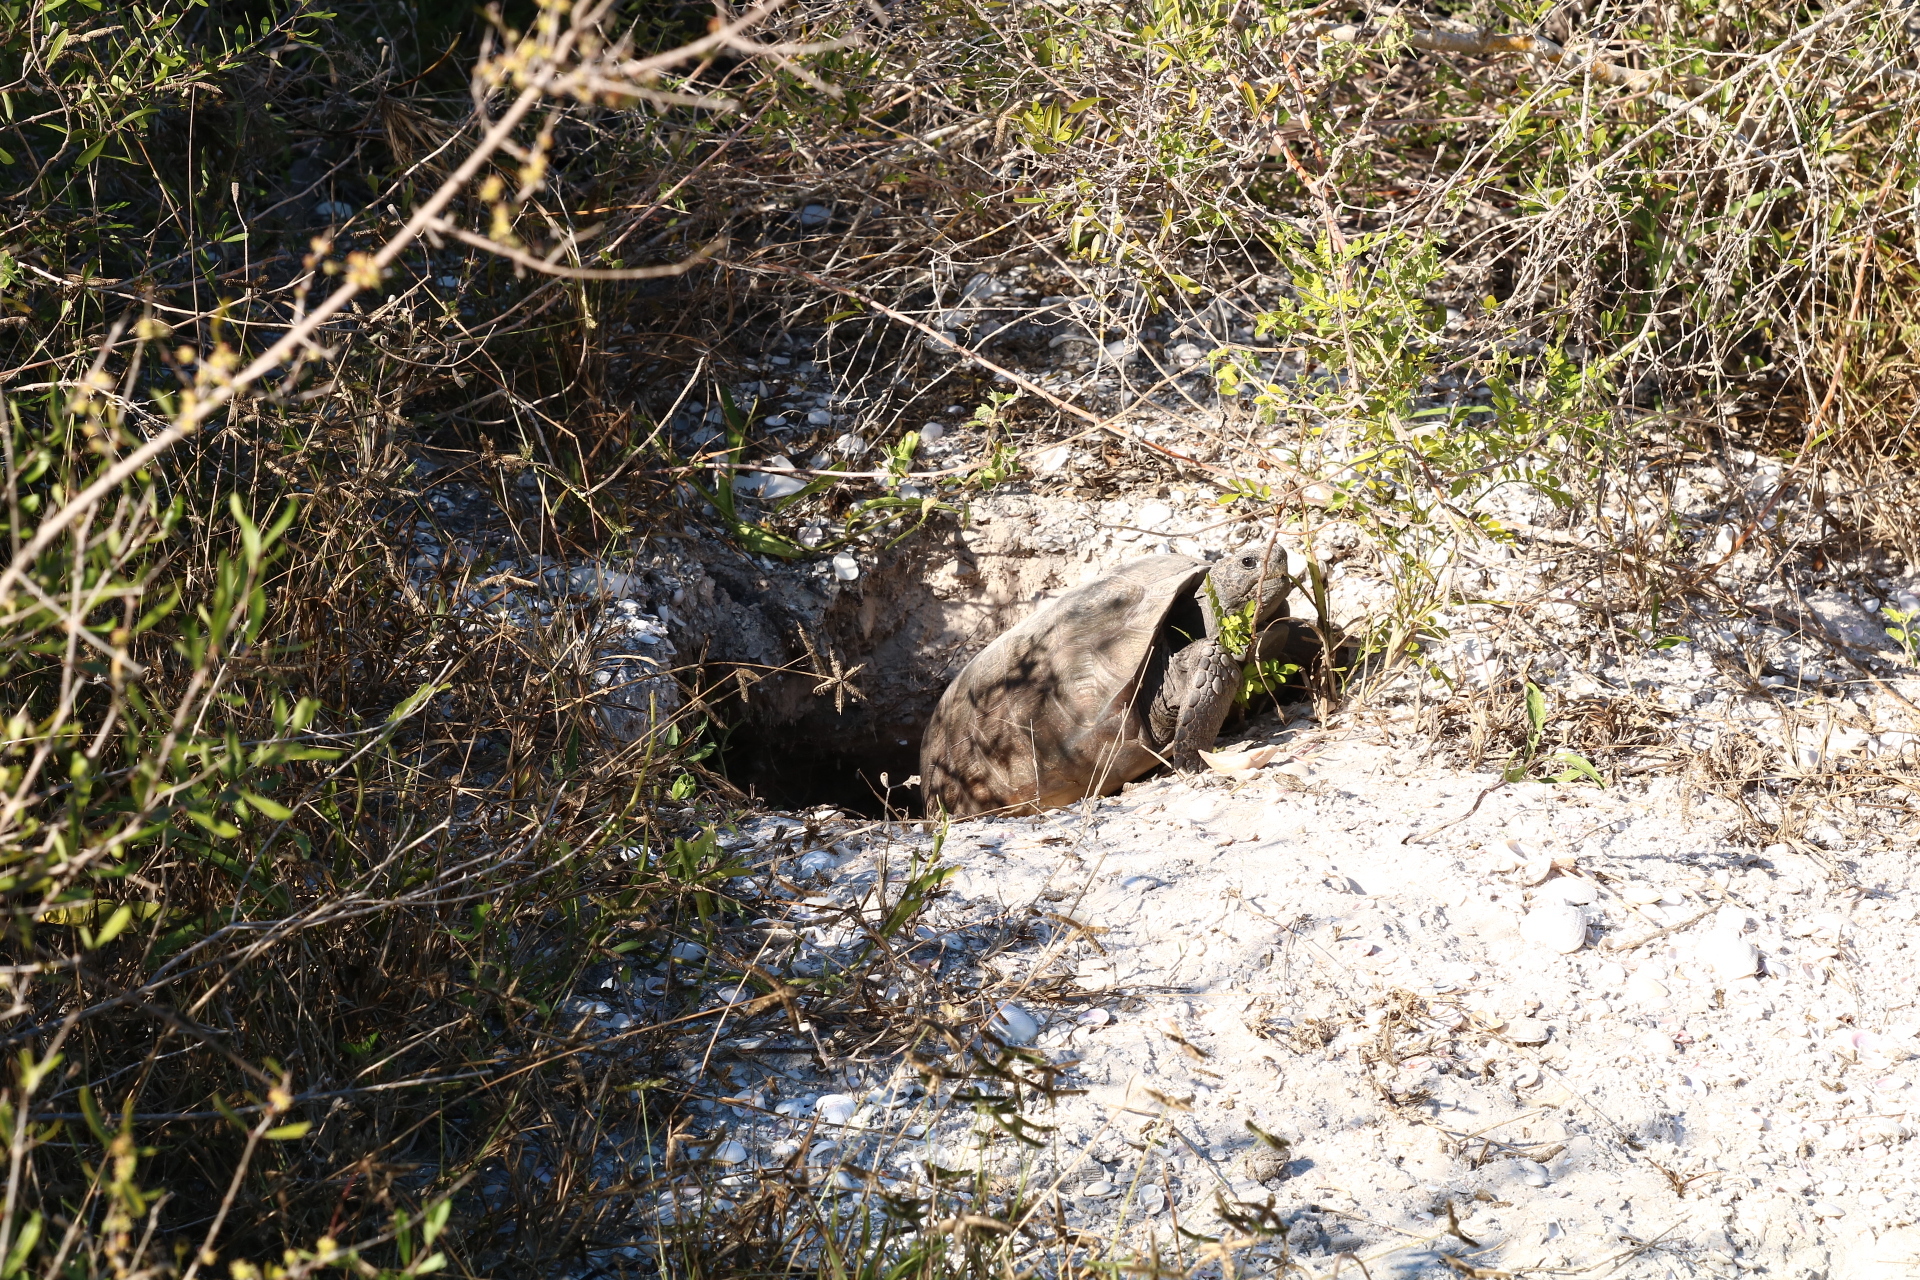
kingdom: Animalia
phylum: Chordata
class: Testudines
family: Testudinidae
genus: Gopherus
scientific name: Gopherus polyphemus
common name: Florida gopher tortoise
